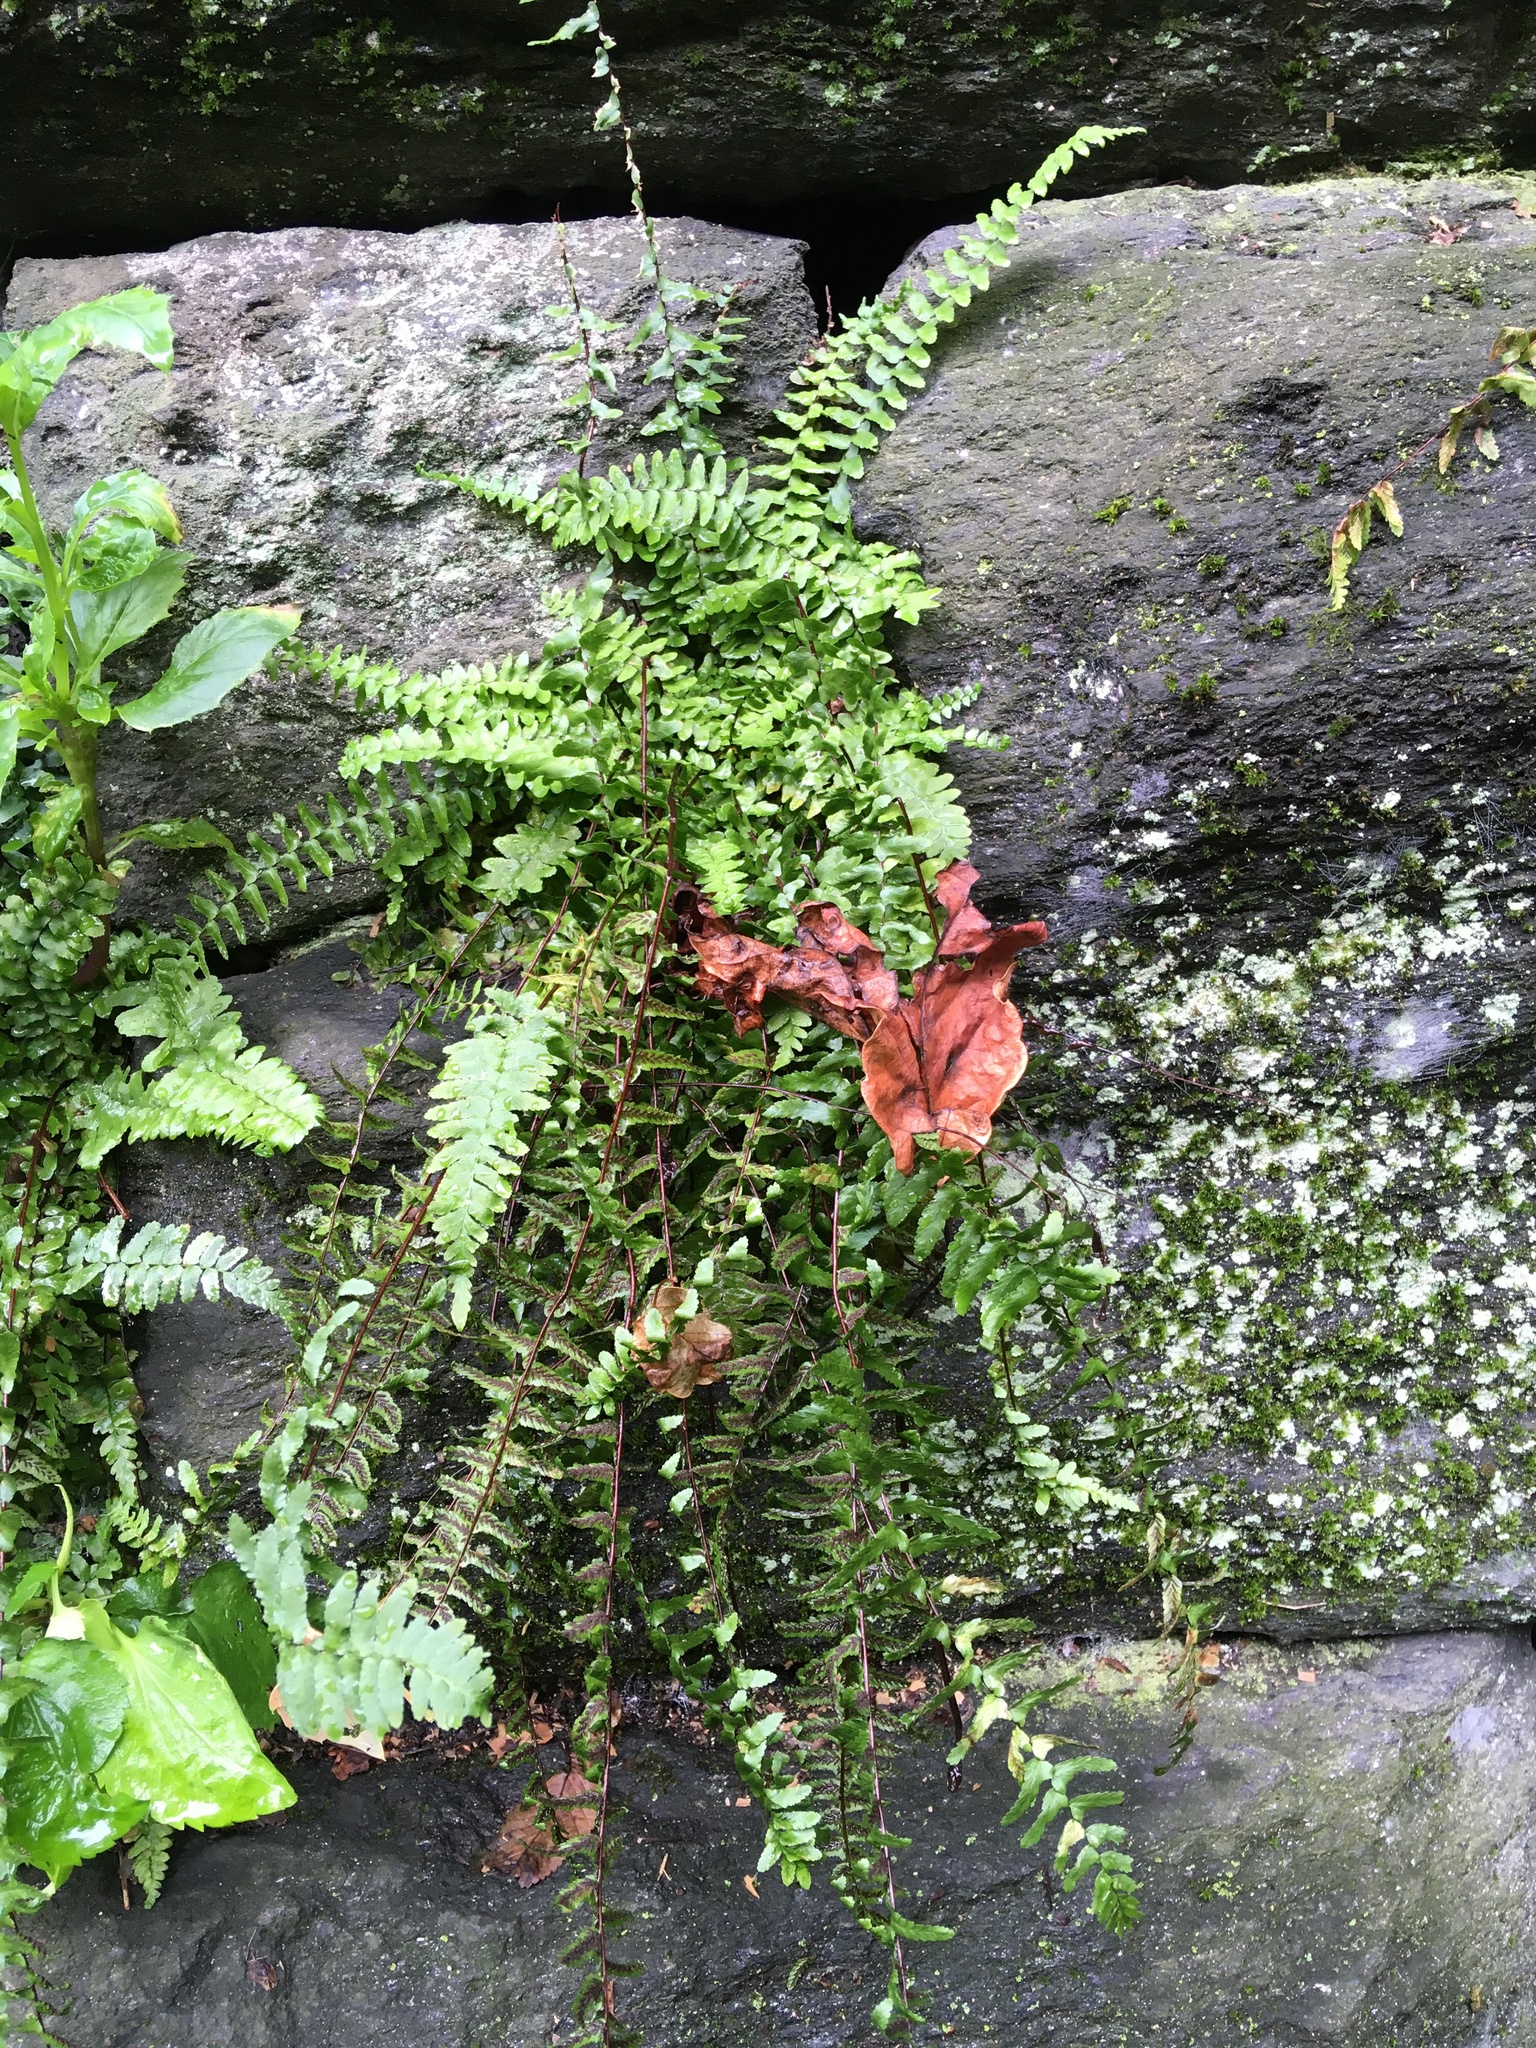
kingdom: Plantae
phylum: Tracheophyta
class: Polypodiopsida
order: Polypodiales
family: Aspleniaceae
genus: Asplenium
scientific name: Asplenium platyneuron
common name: Ebony spleenwort
